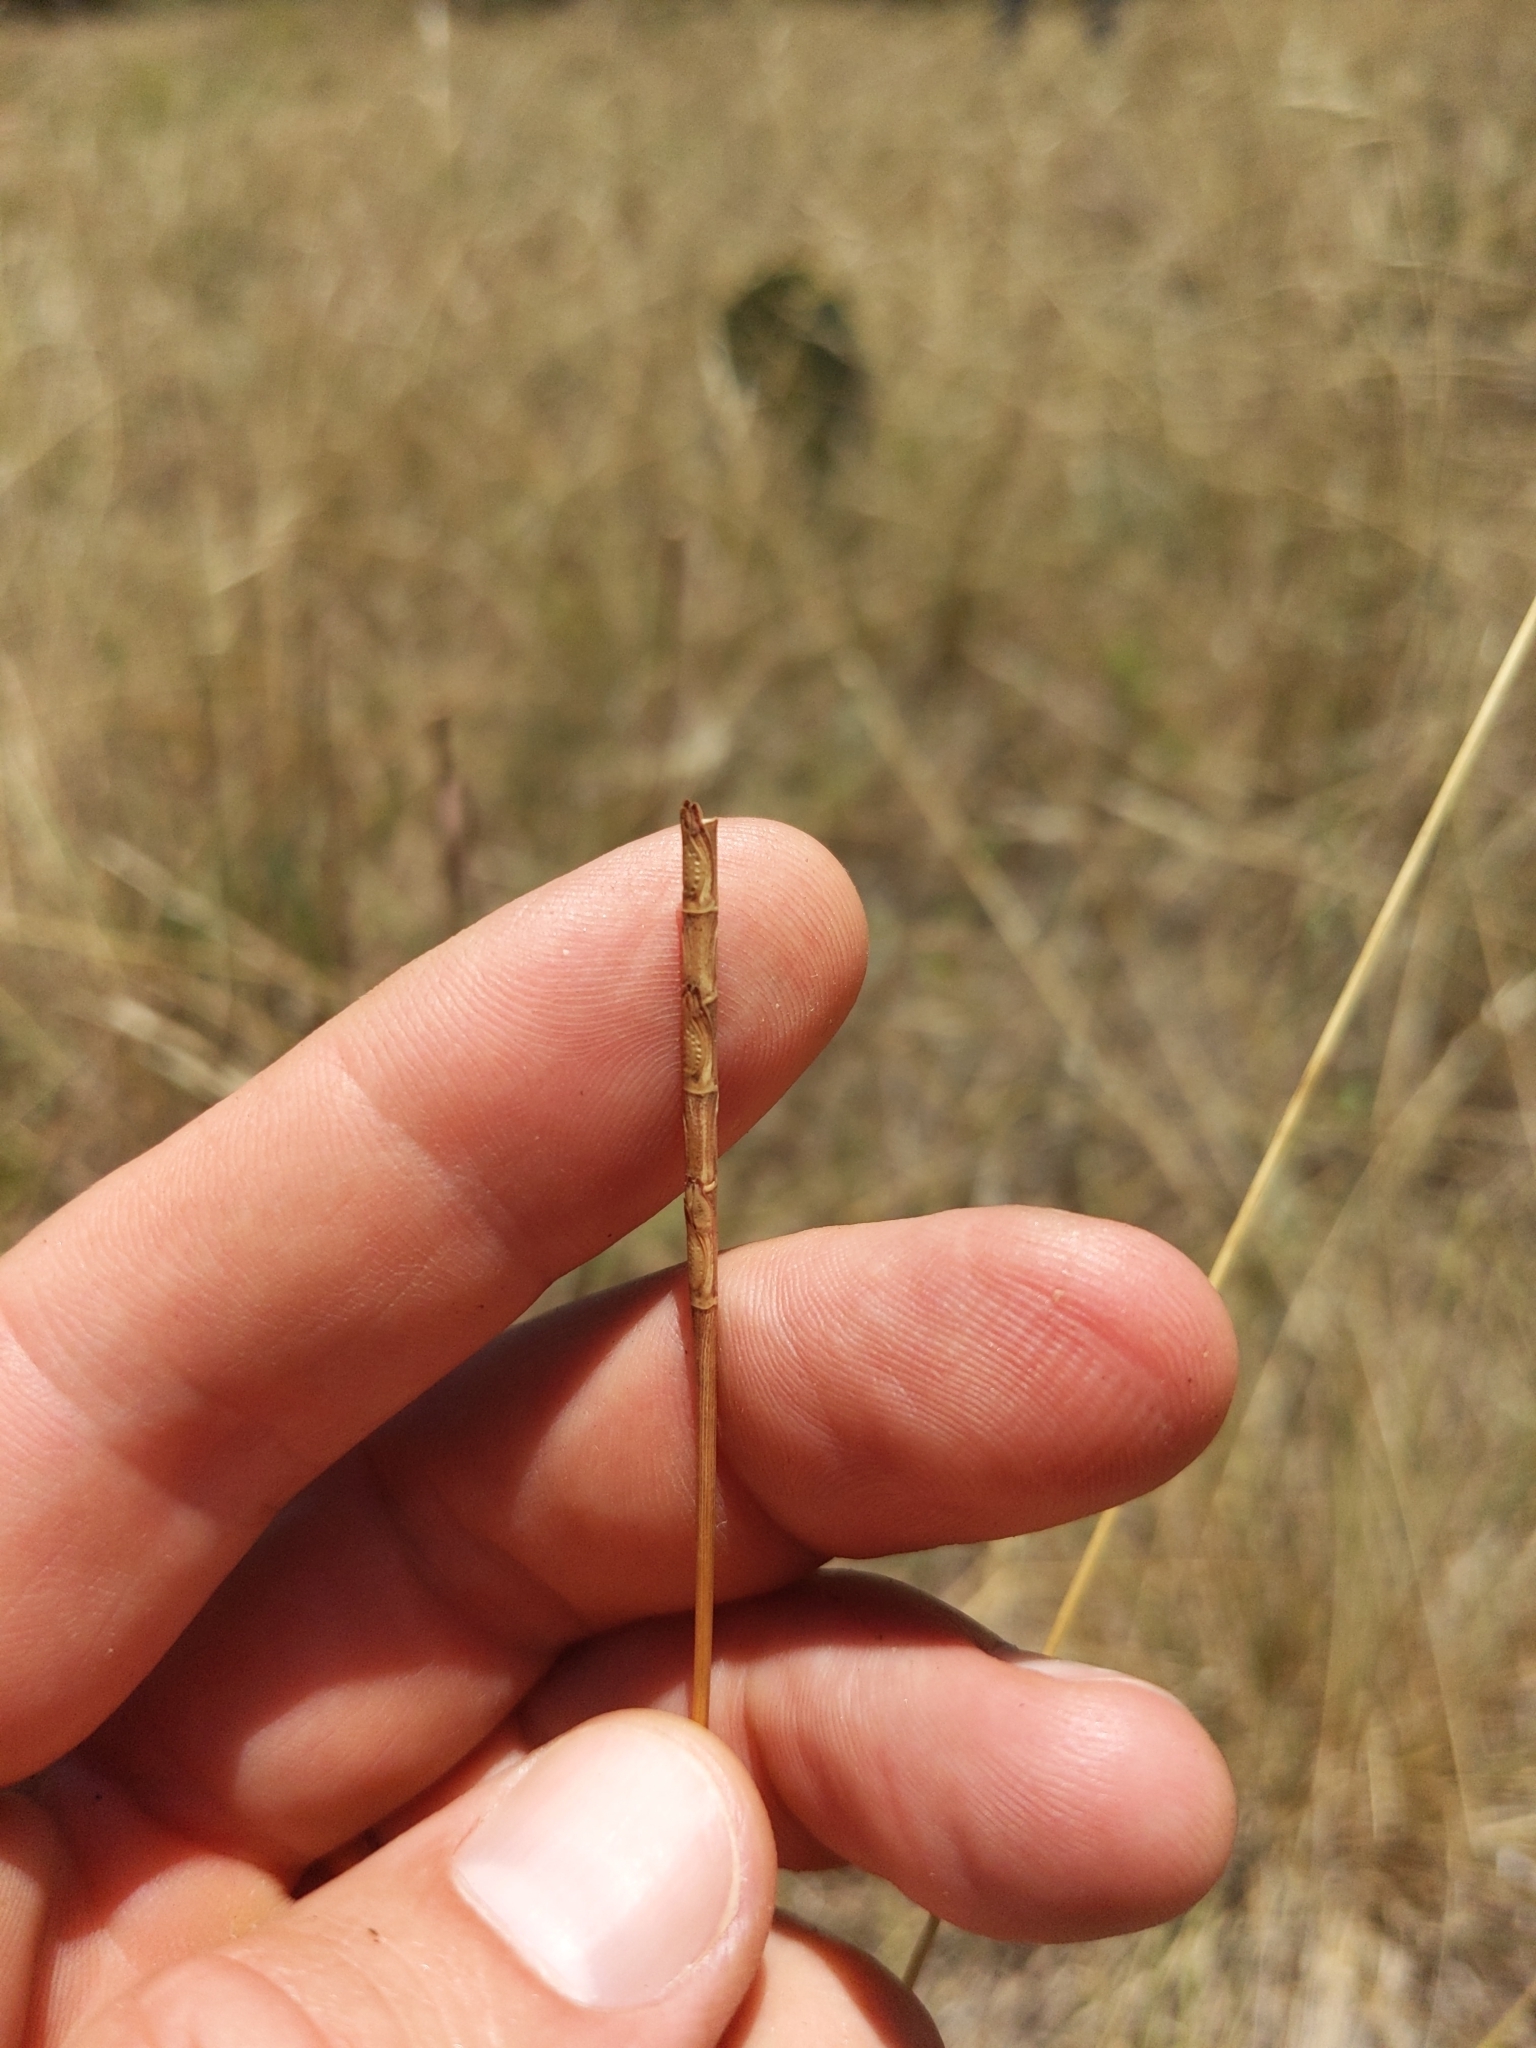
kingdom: Plantae
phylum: Tracheophyta
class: Liliopsida
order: Poales
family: Poaceae
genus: Rottboellia
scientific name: Rottboellia campestris
